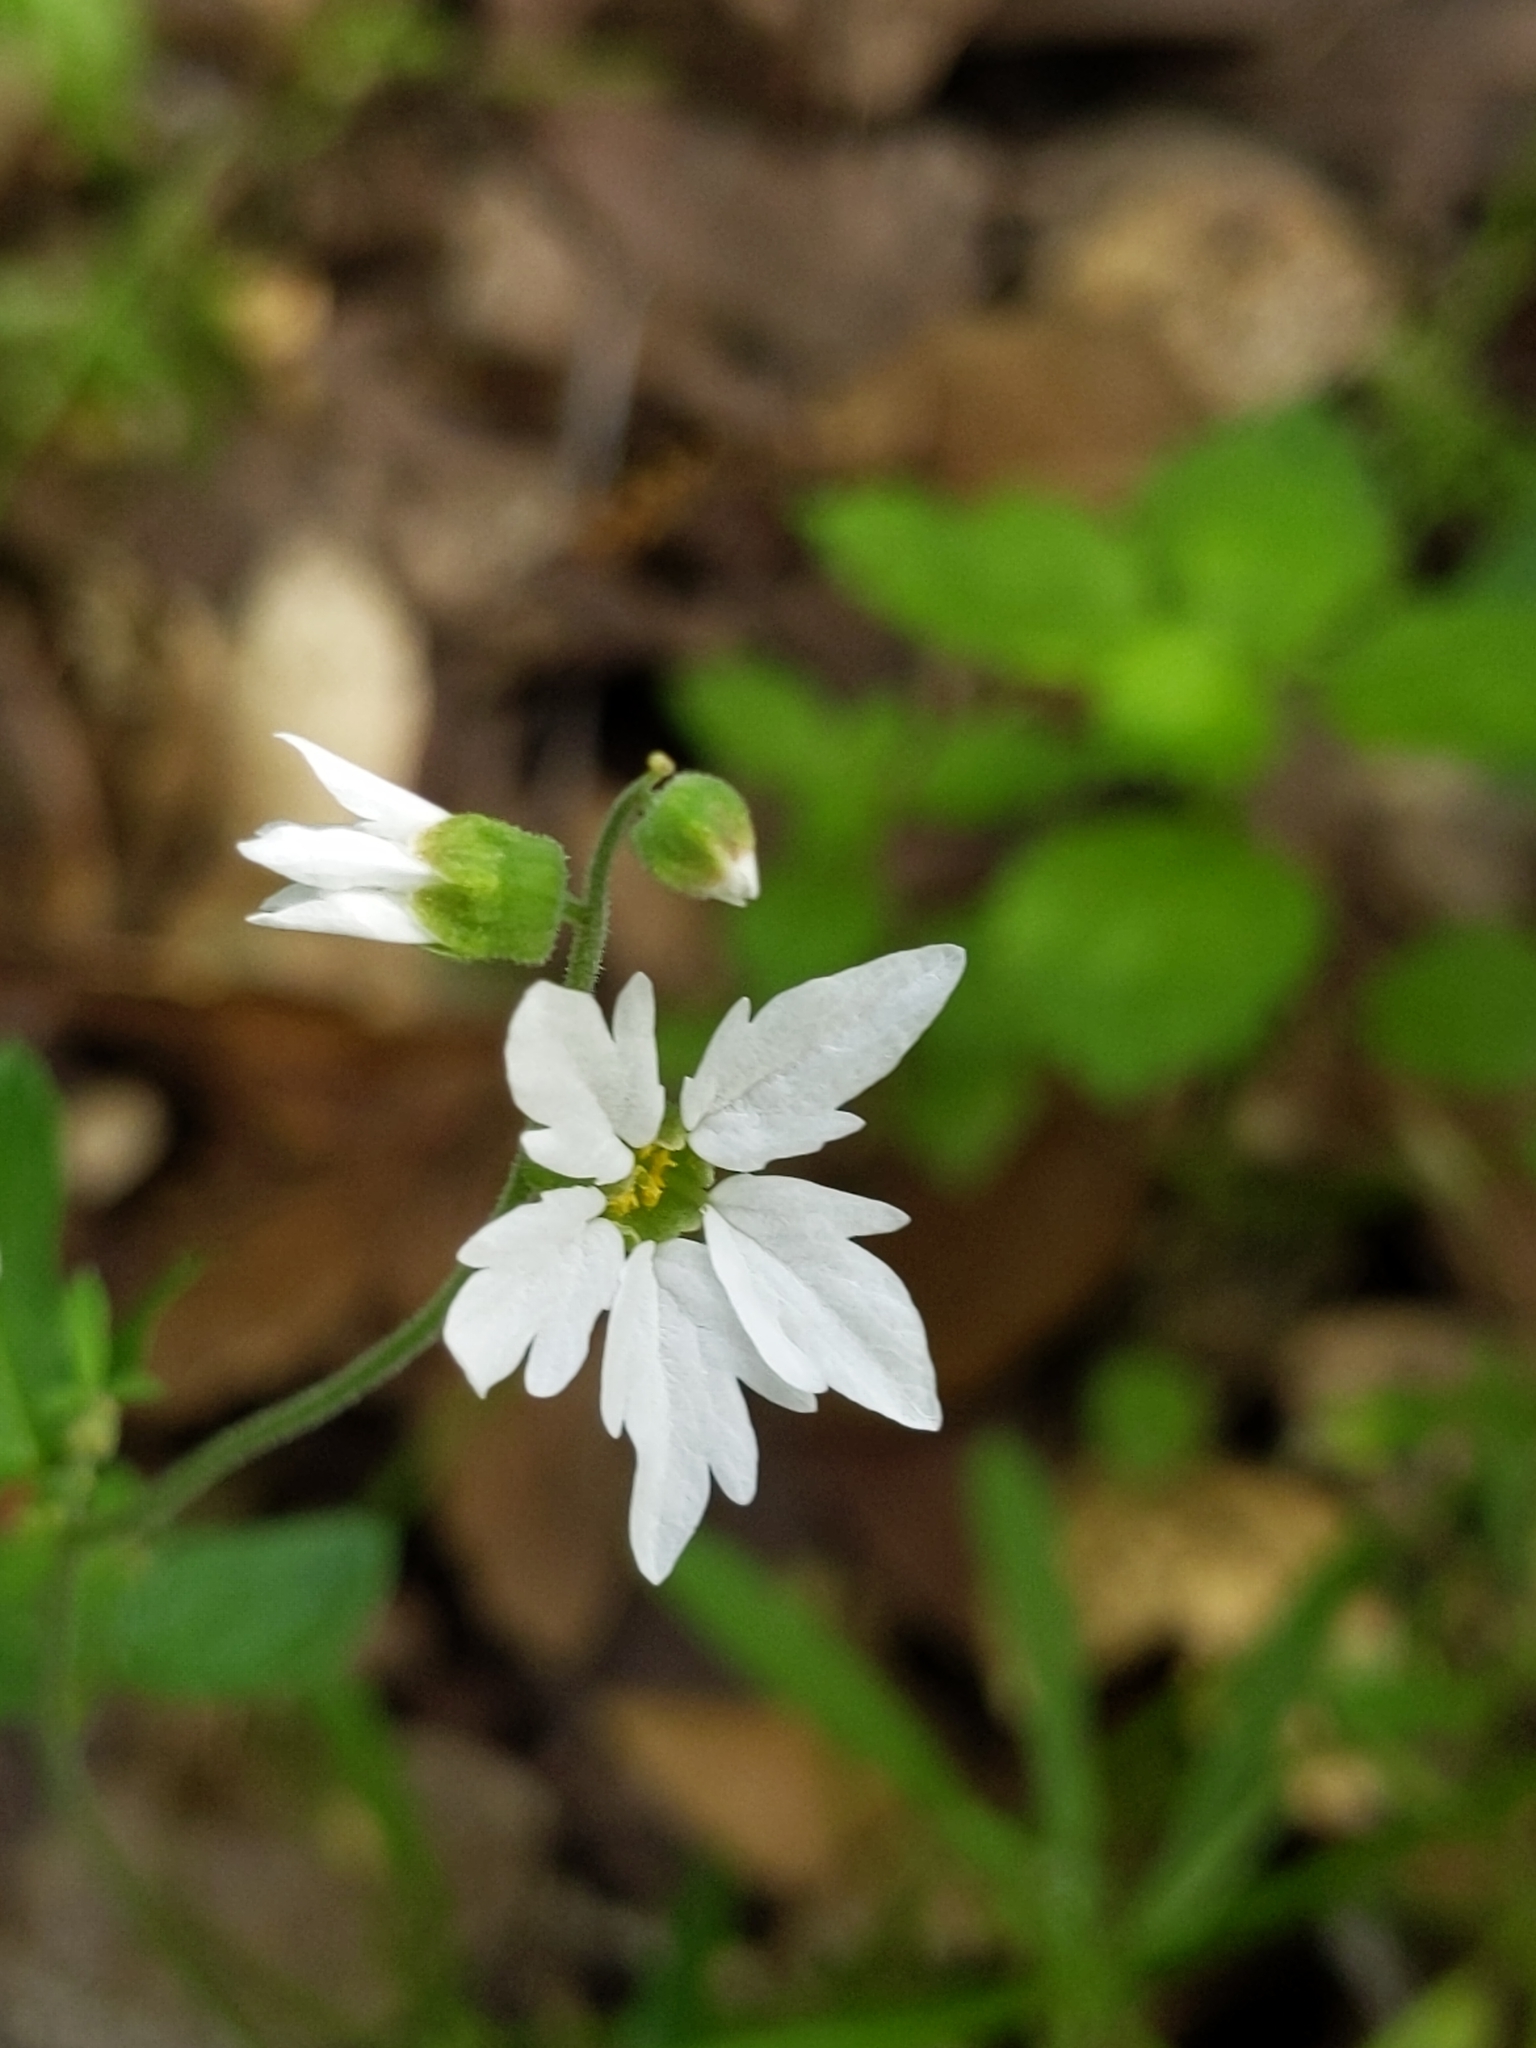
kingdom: Plantae
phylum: Tracheophyta
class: Magnoliopsida
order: Saxifragales
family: Saxifragaceae
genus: Lithophragma
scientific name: Lithophragma heterophyllum
